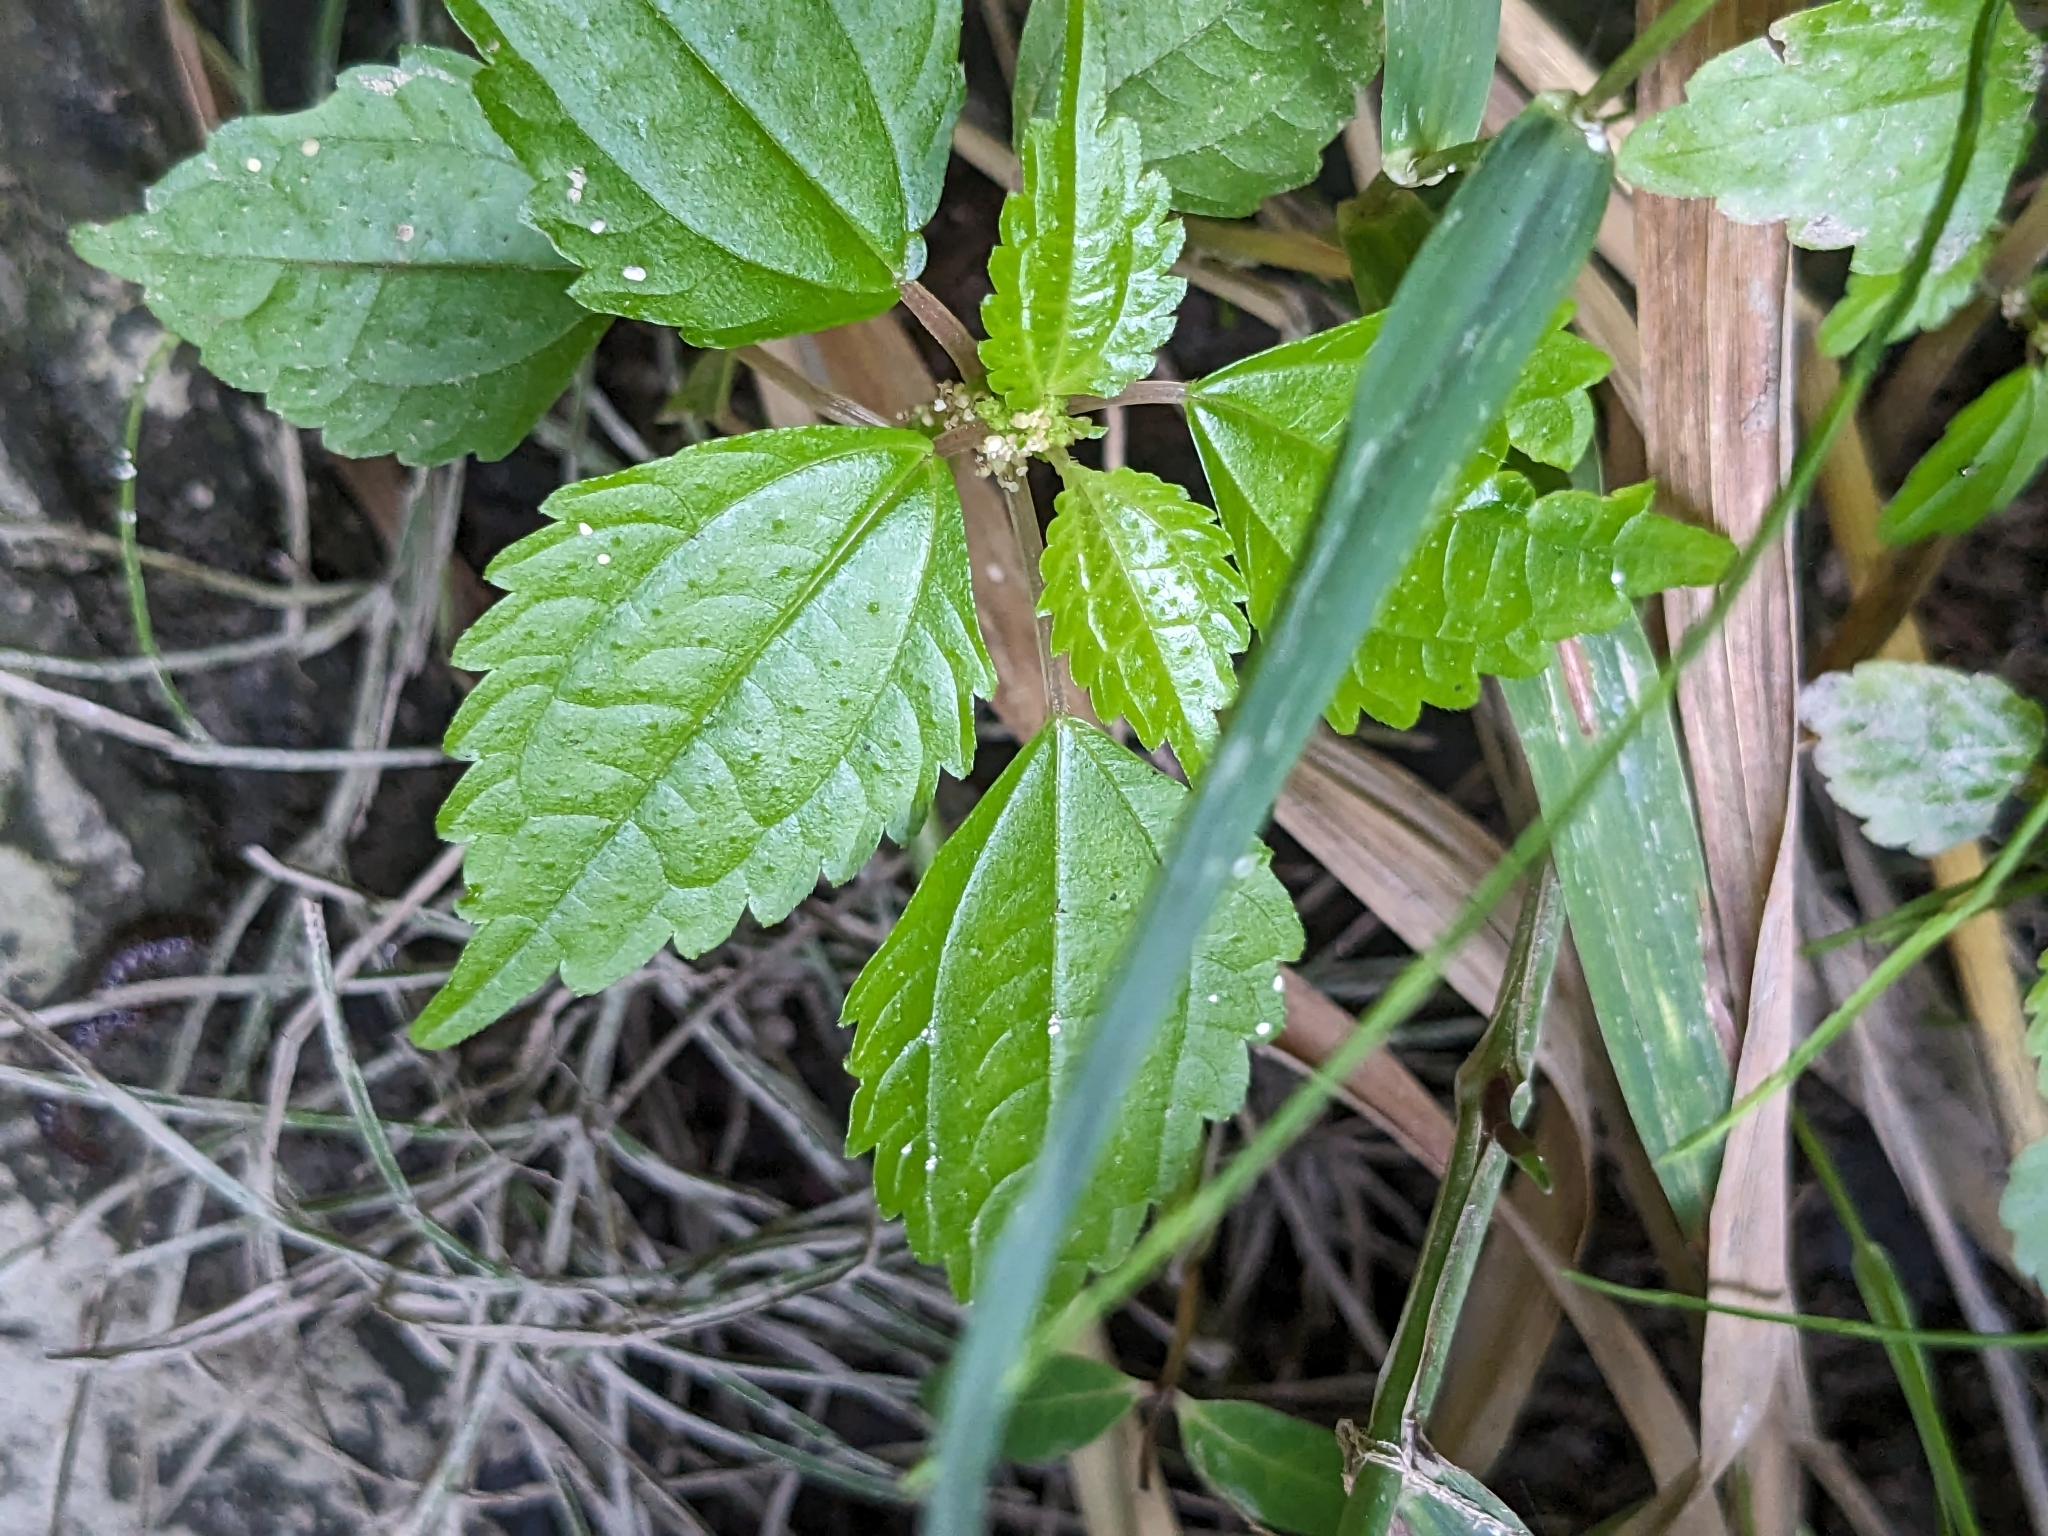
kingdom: Plantae
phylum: Tracheophyta
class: Magnoliopsida
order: Rosales
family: Urticaceae
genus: Pilea
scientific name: Pilea pumila
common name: Clearweed
